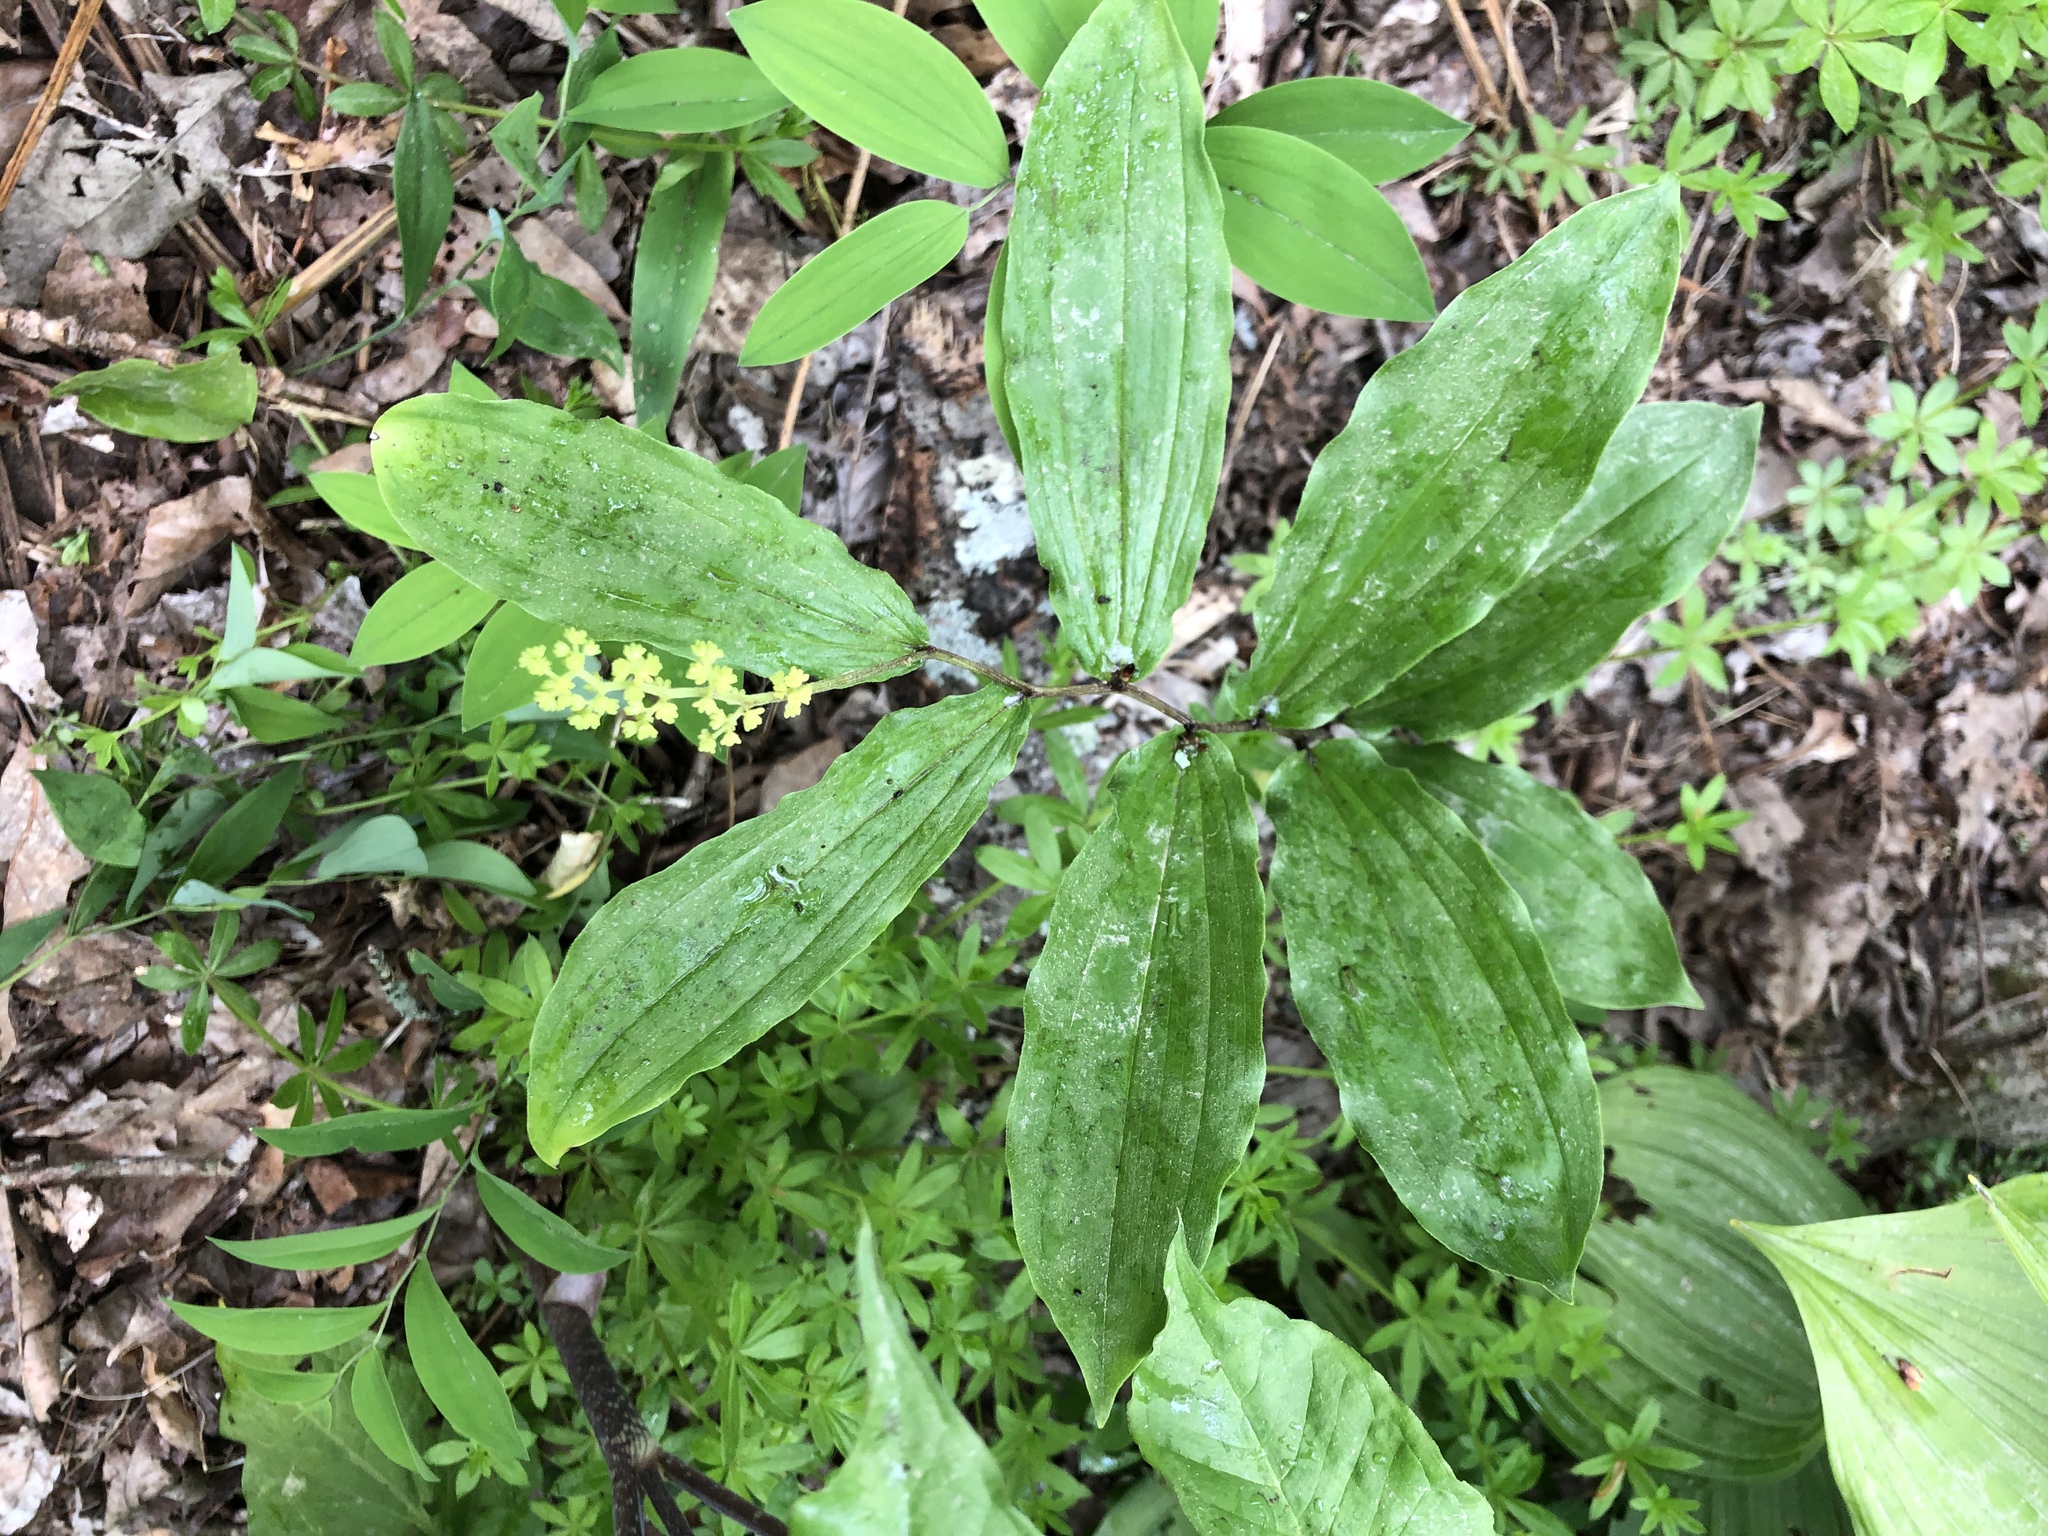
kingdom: Plantae
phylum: Tracheophyta
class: Liliopsida
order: Asparagales
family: Asparagaceae
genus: Maianthemum
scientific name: Maianthemum racemosum
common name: False spikenard
